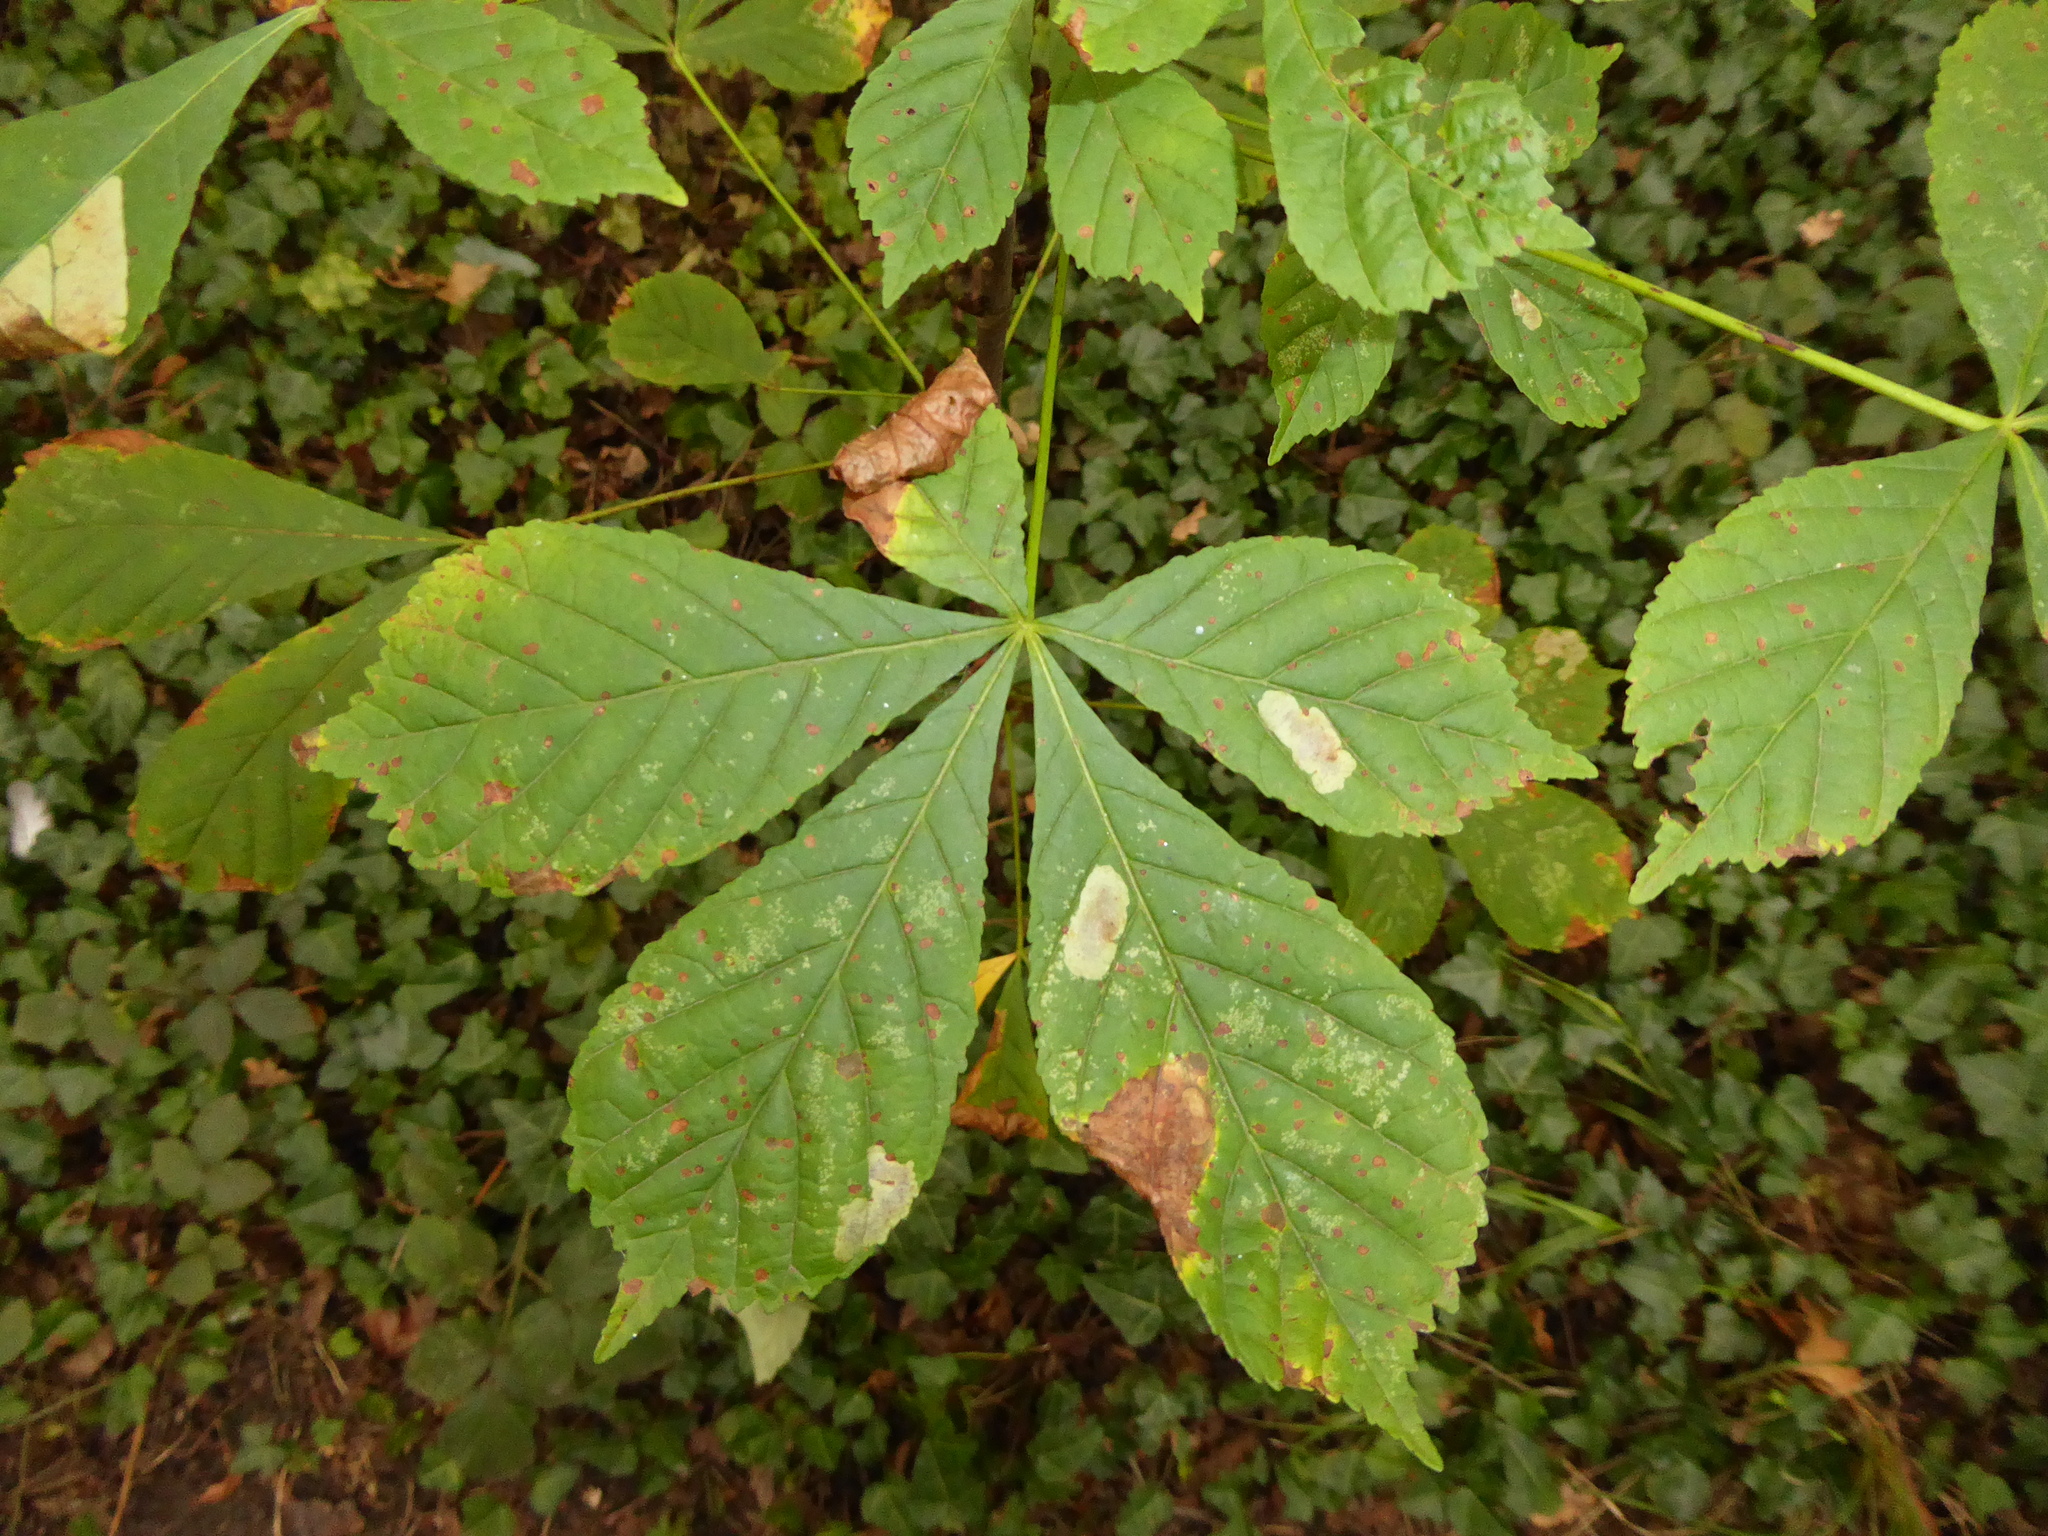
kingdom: Plantae
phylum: Tracheophyta
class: Magnoliopsida
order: Sapindales
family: Sapindaceae
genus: Aesculus
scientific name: Aesculus hippocastanum
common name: Horse-chestnut
